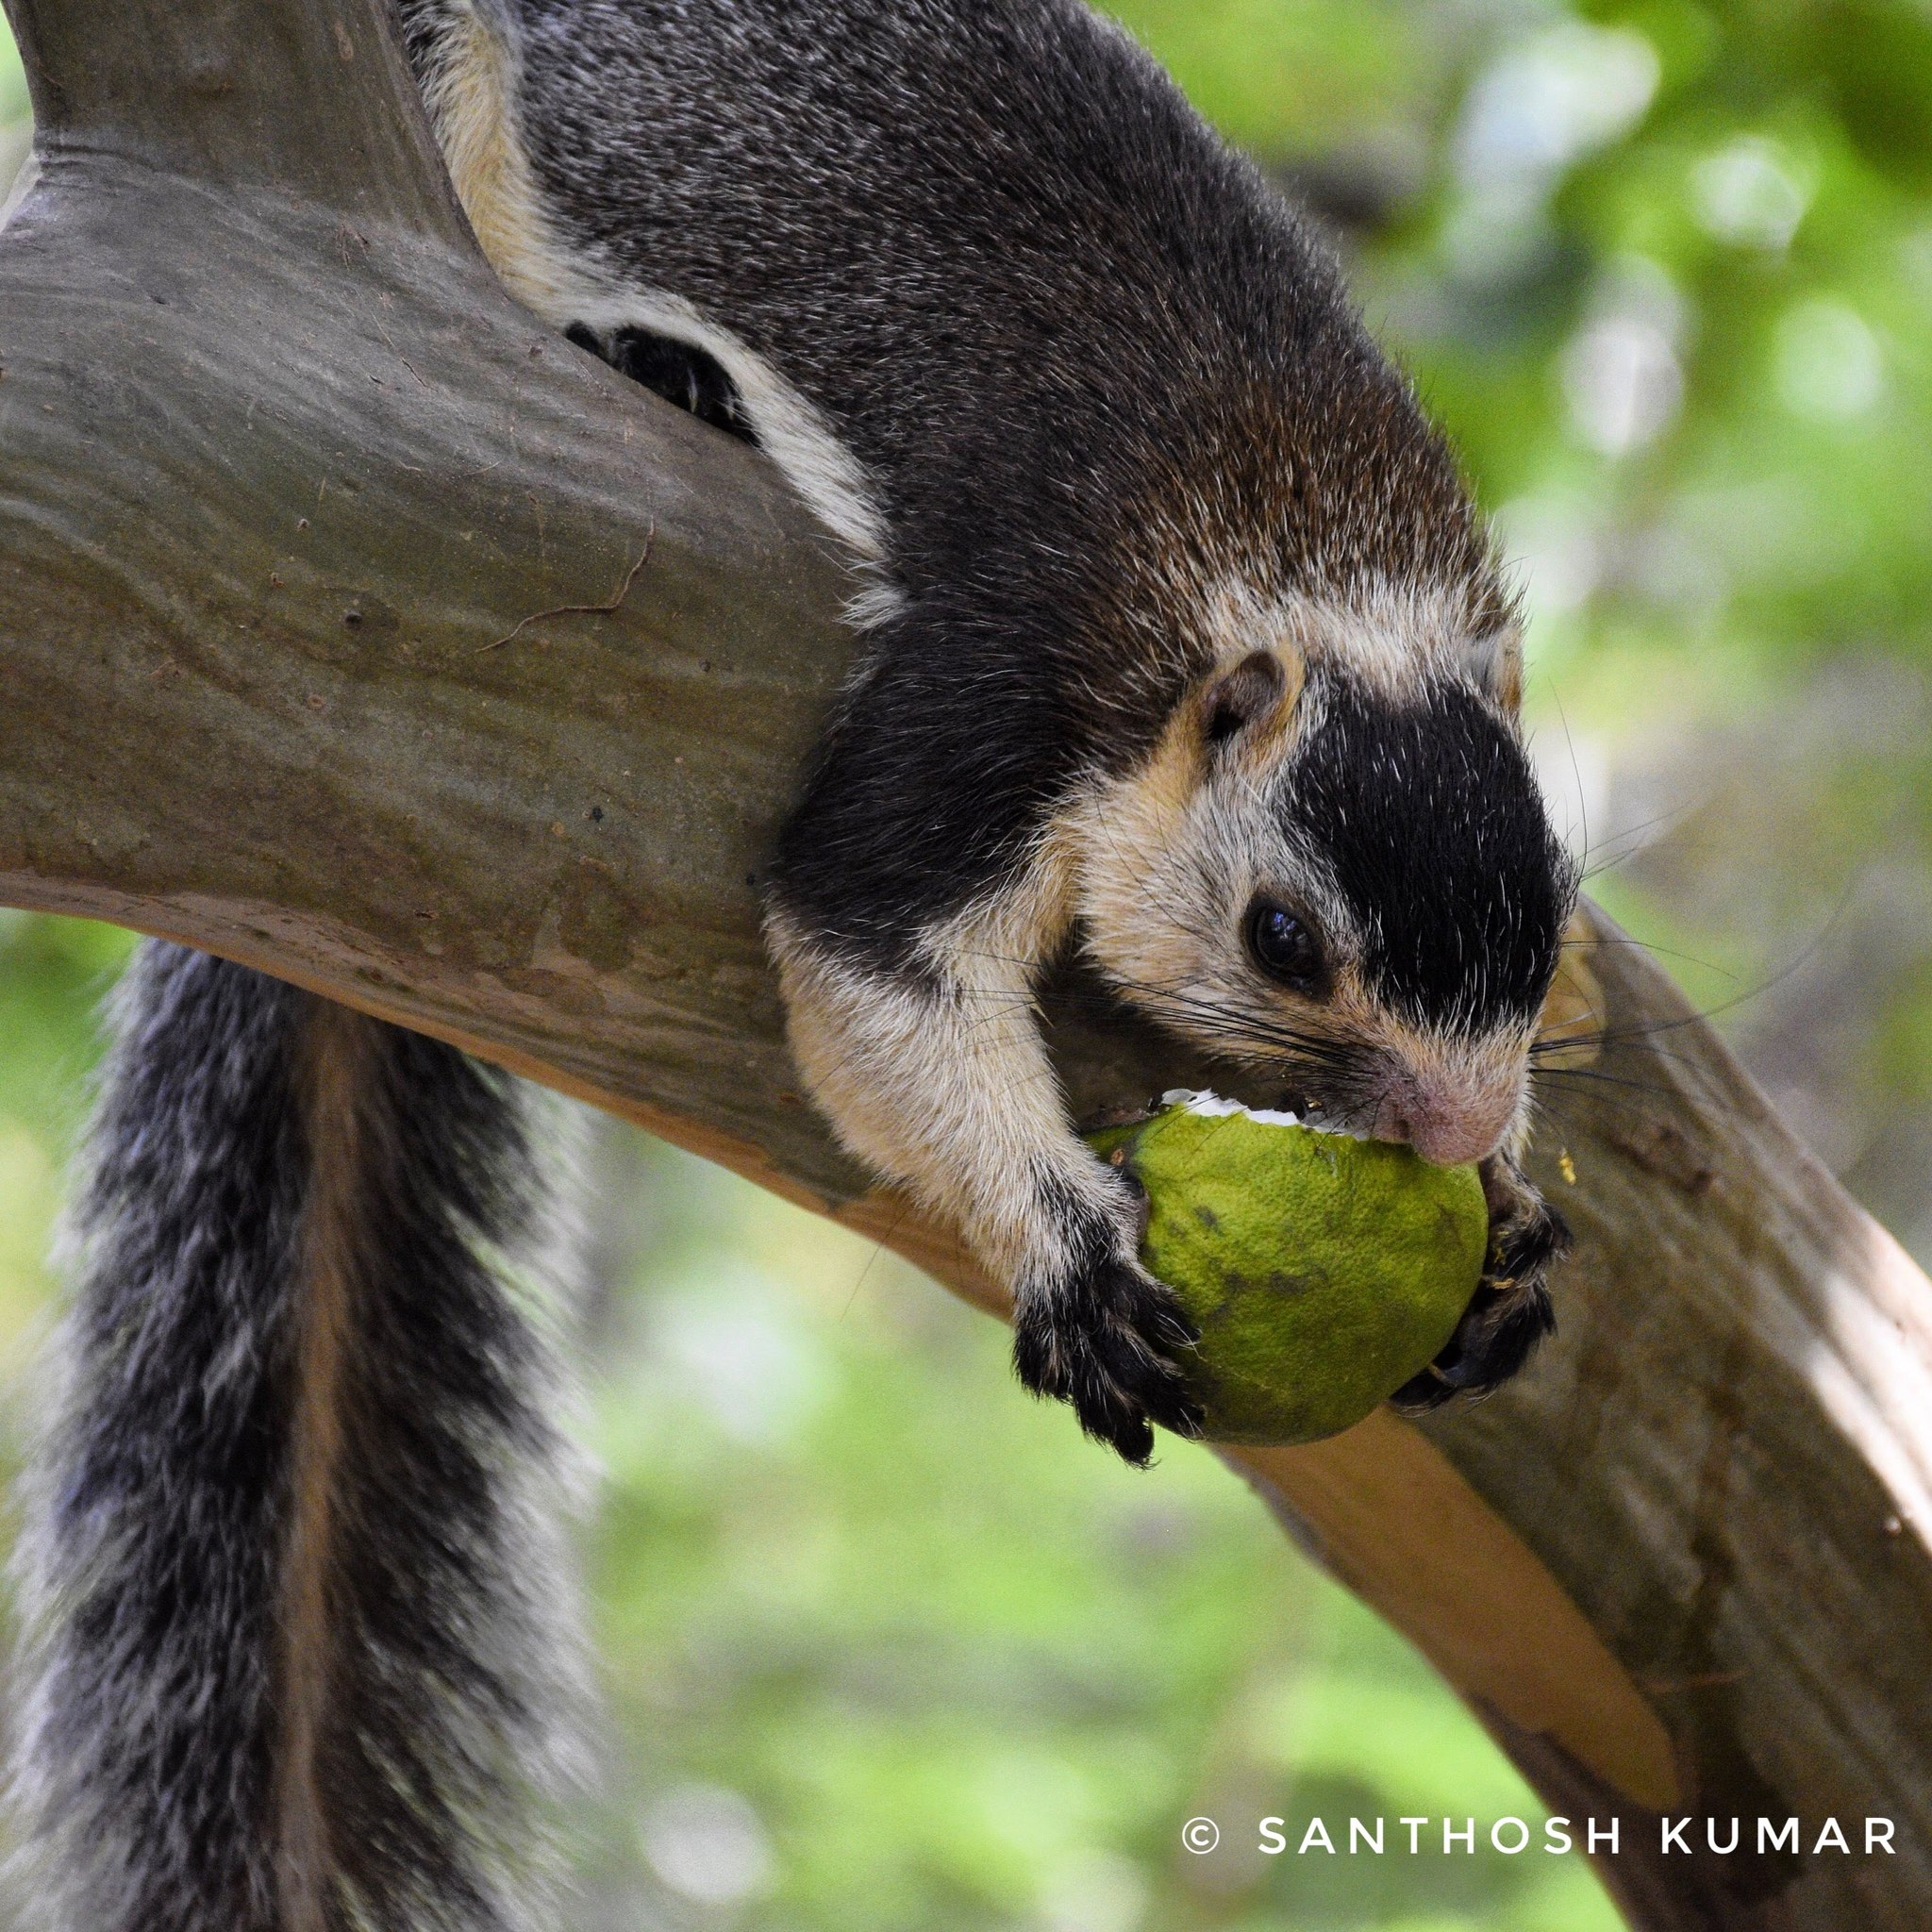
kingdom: Animalia
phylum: Chordata
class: Mammalia
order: Rodentia
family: Sciuridae
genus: Ratufa
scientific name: Ratufa macroura
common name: Sri lankan giant squirrel
